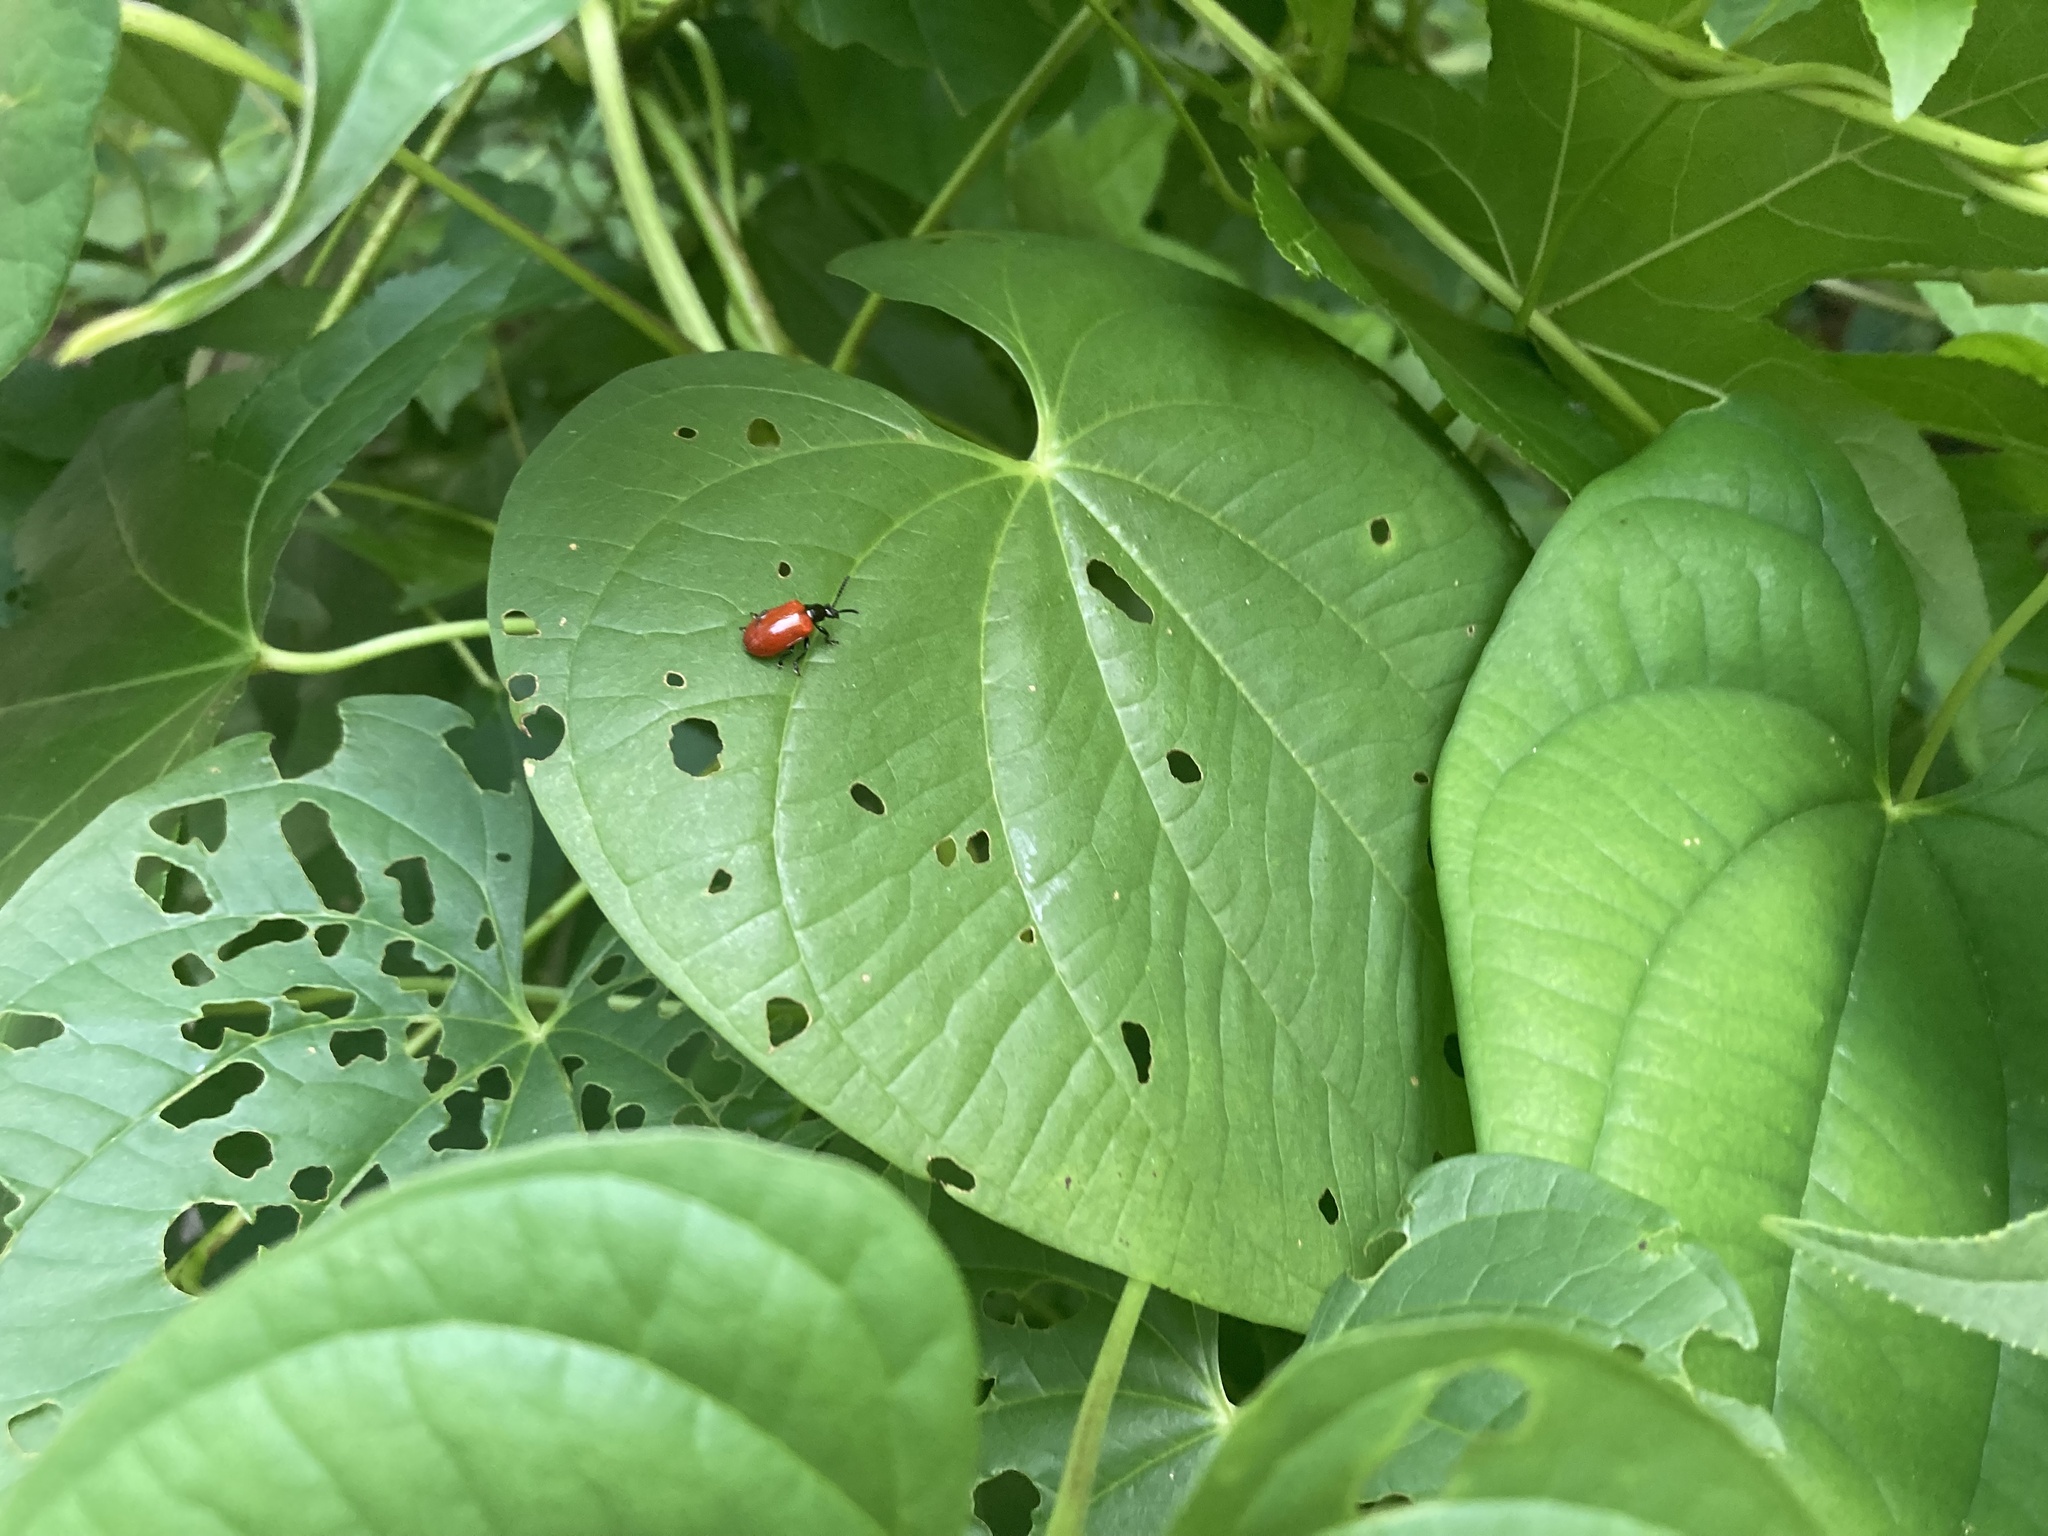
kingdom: Animalia
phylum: Arthropoda
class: Insecta
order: Coleoptera
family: Chrysomelidae
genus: Lilioceris
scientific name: Lilioceris cheni
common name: Leaf beetle
